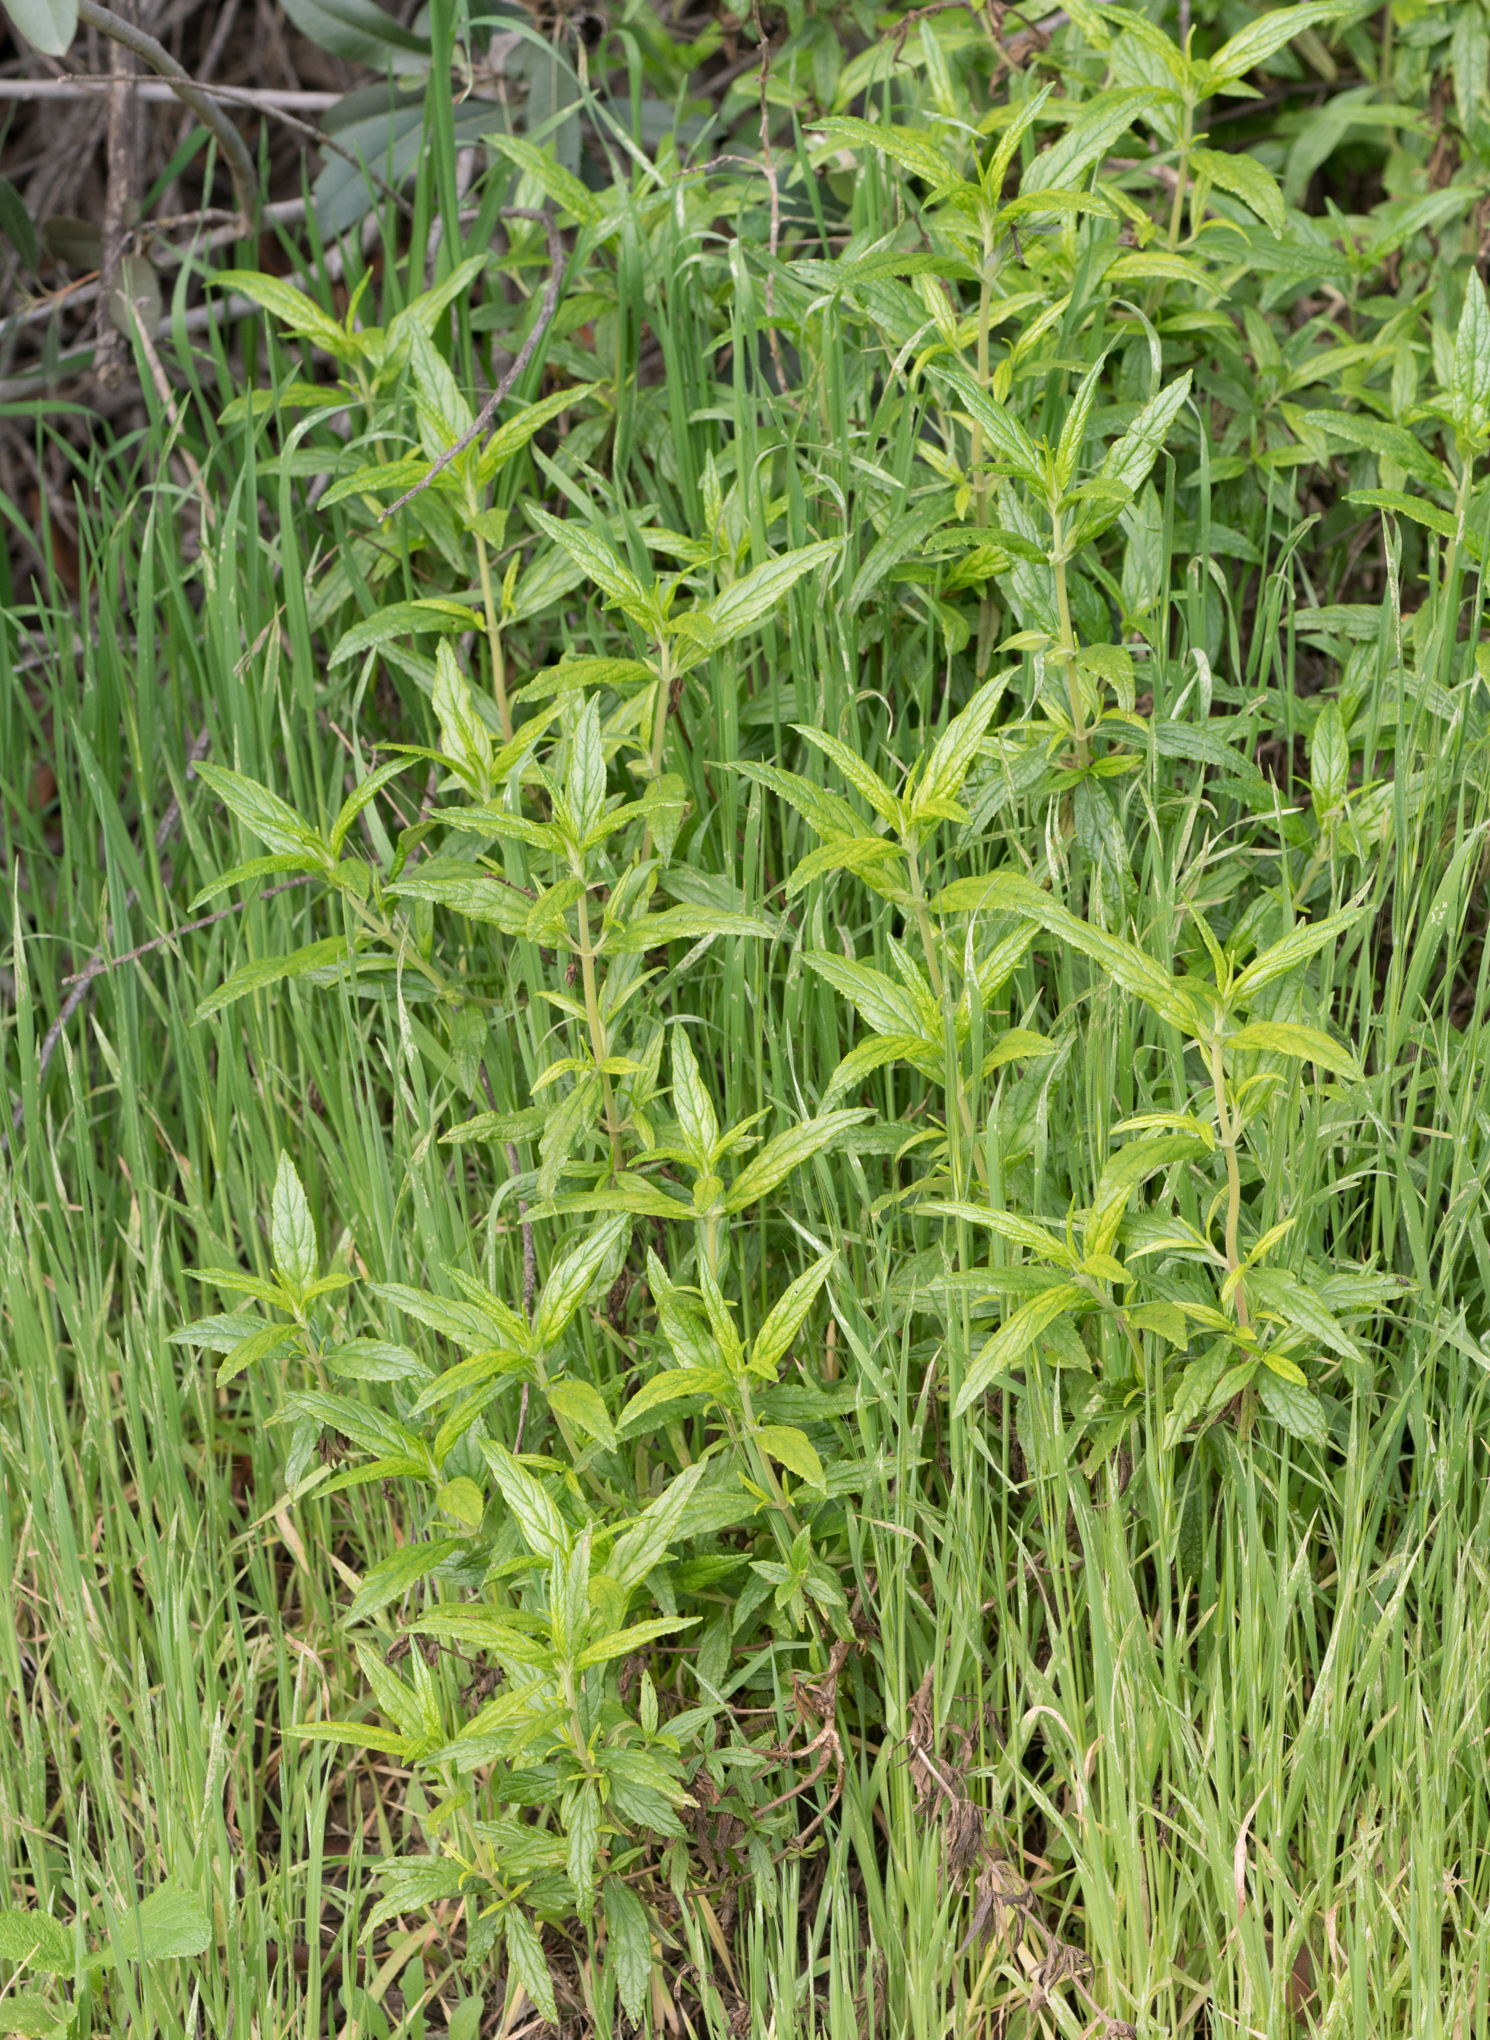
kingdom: Plantae
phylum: Tracheophyta
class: Magnoliopsida
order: Lamiales
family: Phrymaceae
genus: Diplacus
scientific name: Diplacus longiflorus
